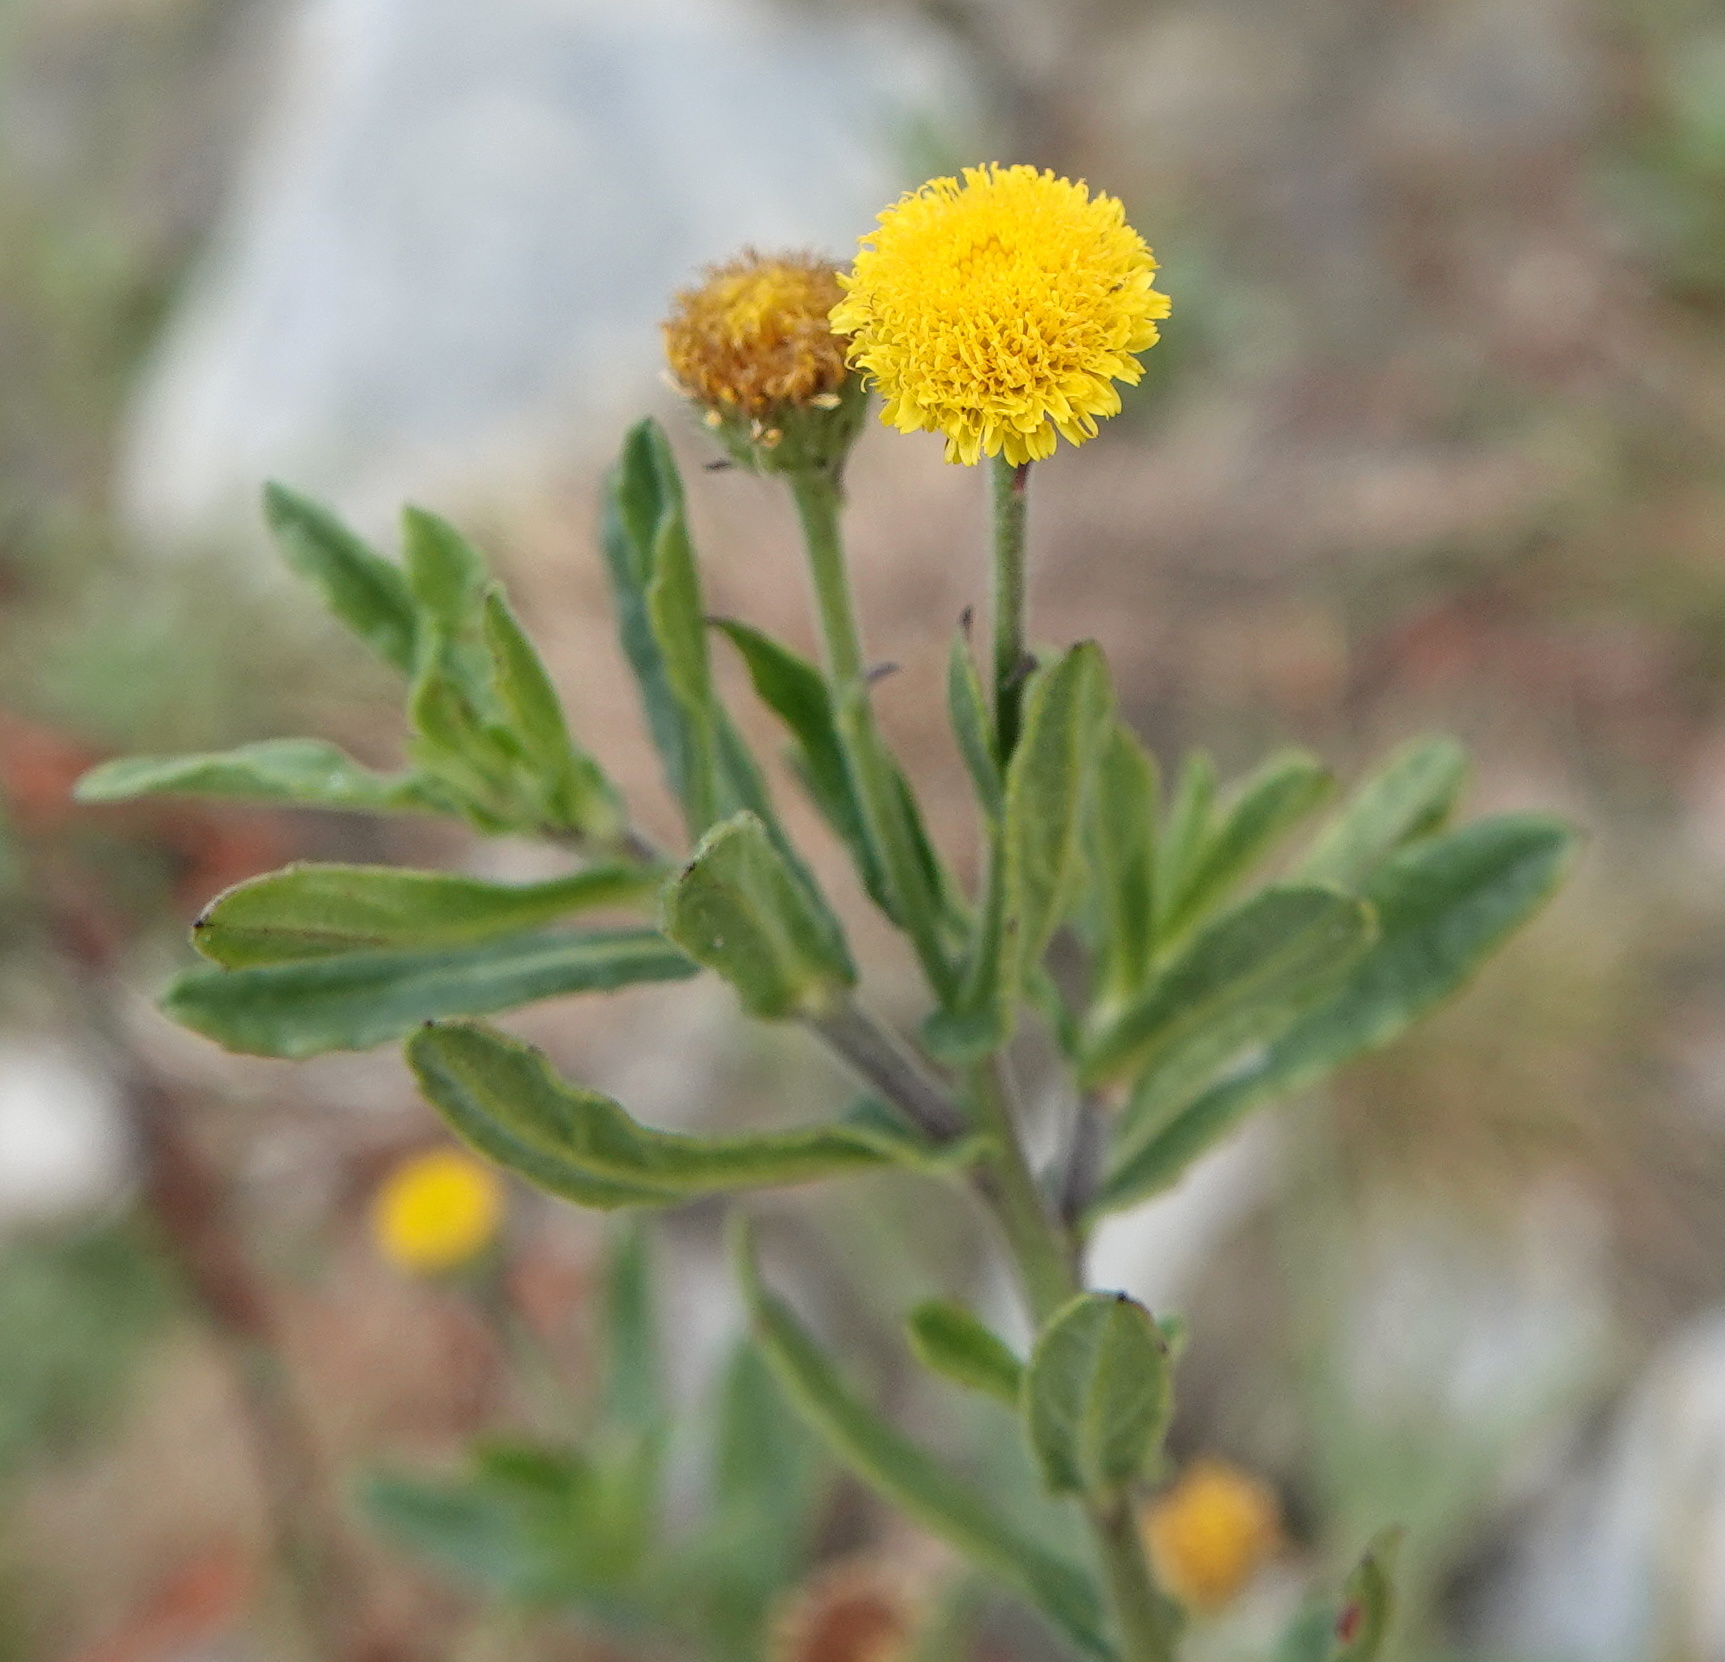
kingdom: Plantae
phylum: Tracheophyta
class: Magnoliopsida
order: Asterales
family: Asteraceae
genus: Pulicaria
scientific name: Pulicaria paludosa
